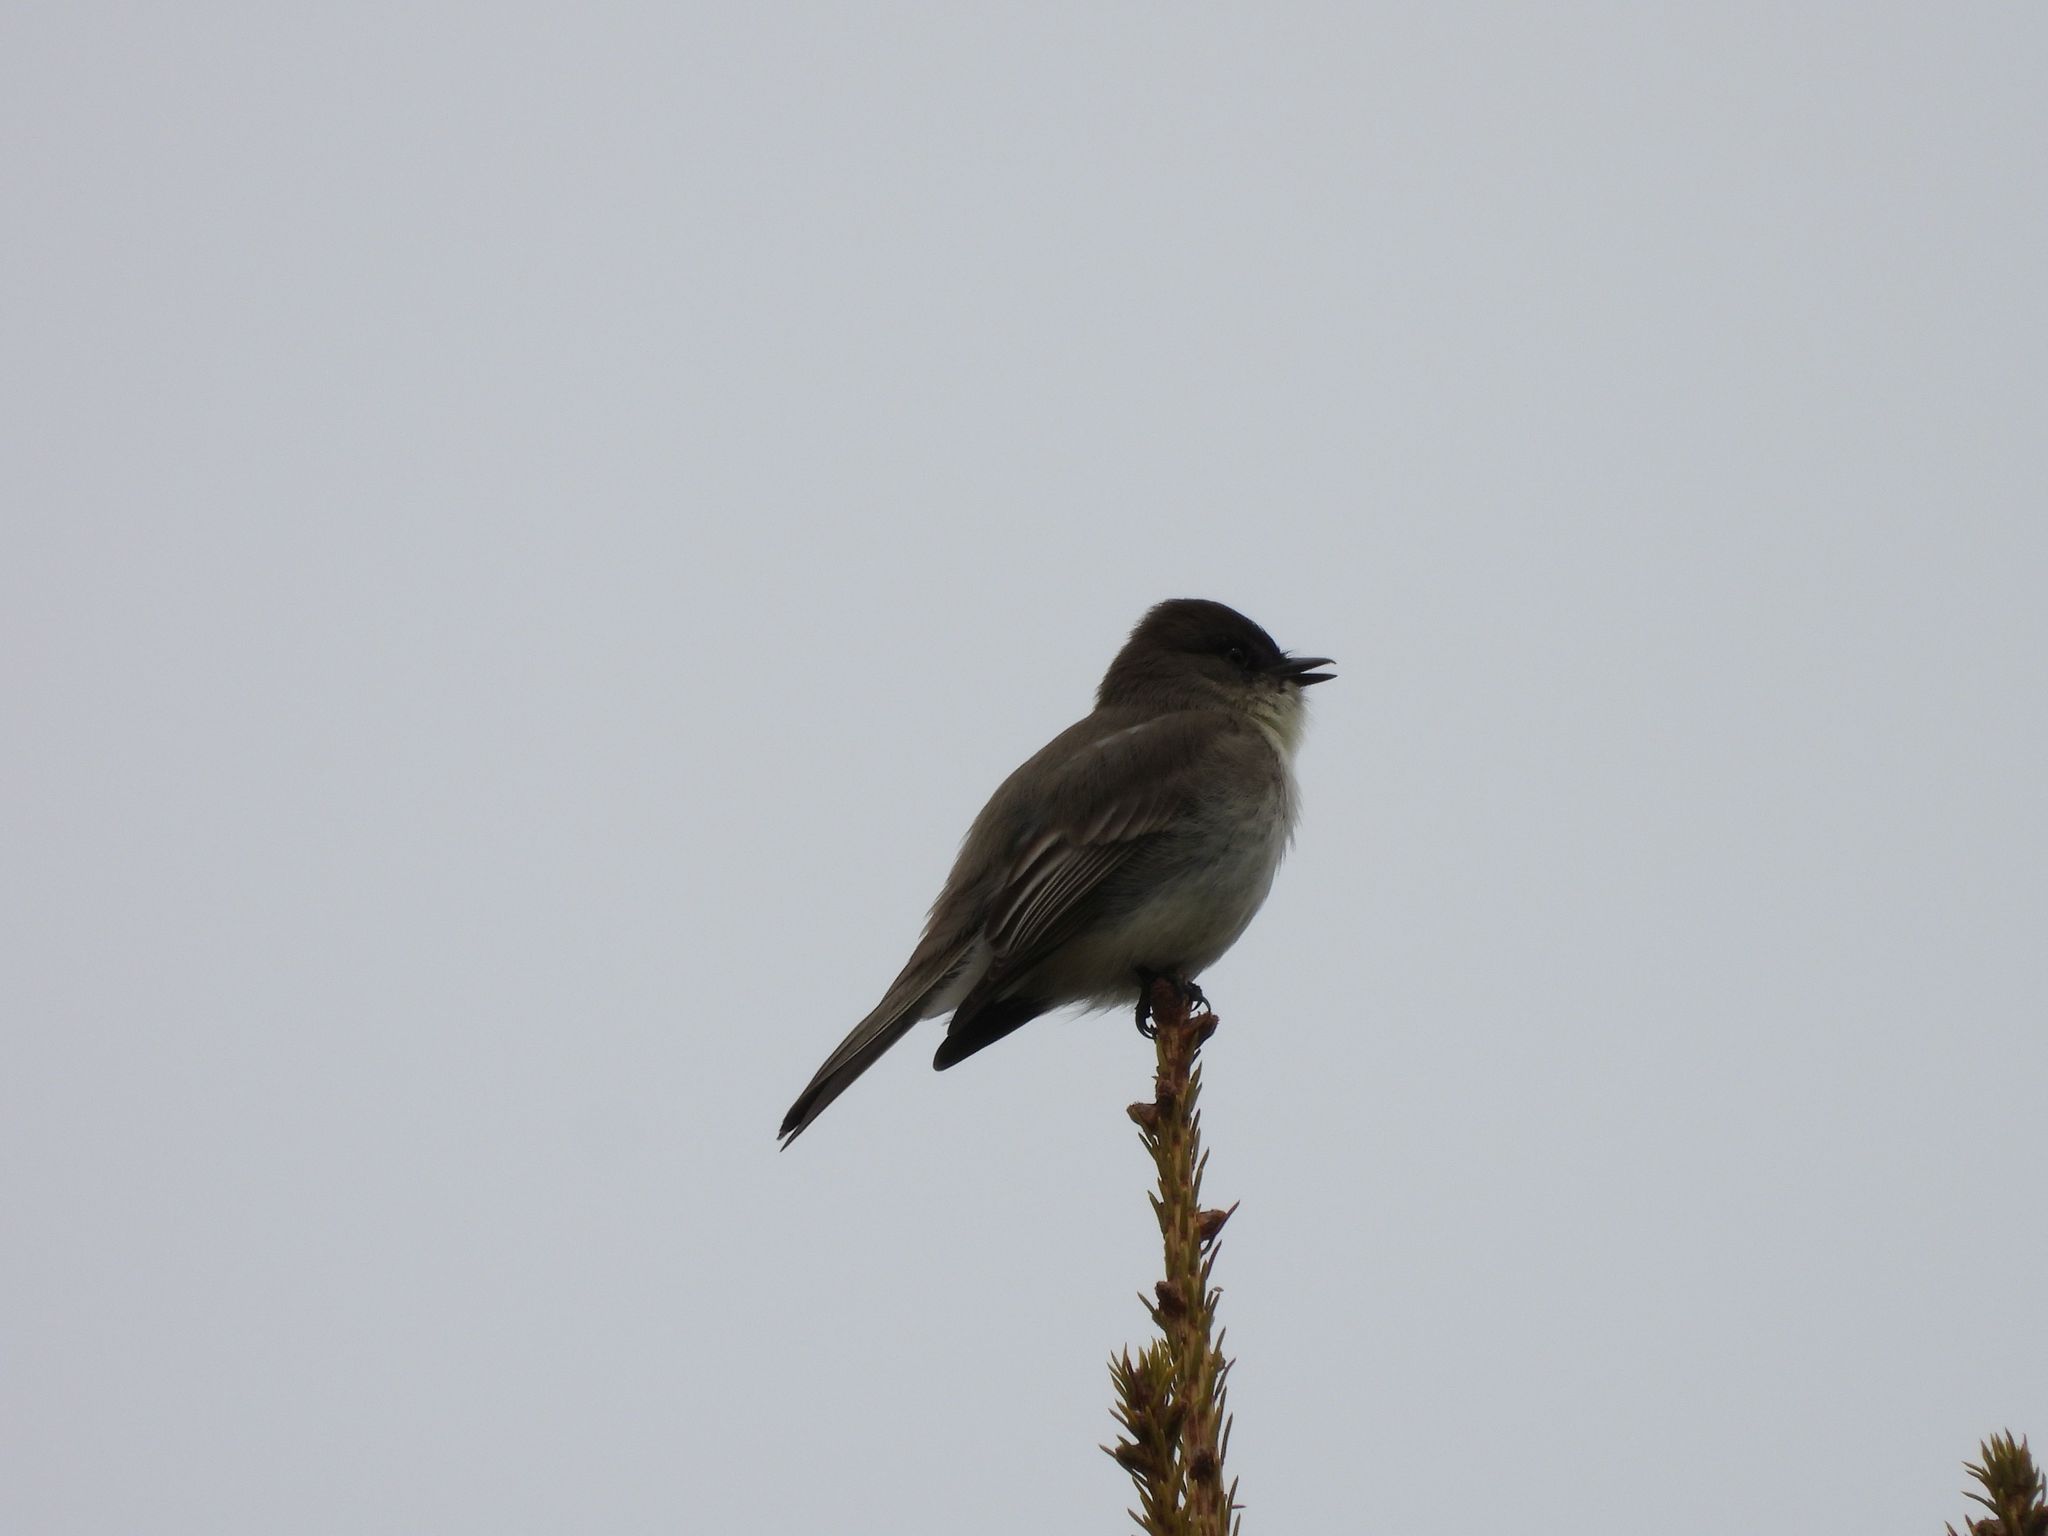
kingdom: Animalia
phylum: Chordata
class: Aves
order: Passeriformes
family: Tyrannidae
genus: Sayornis
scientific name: Sayornis phoebe
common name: Eastern phoebe
